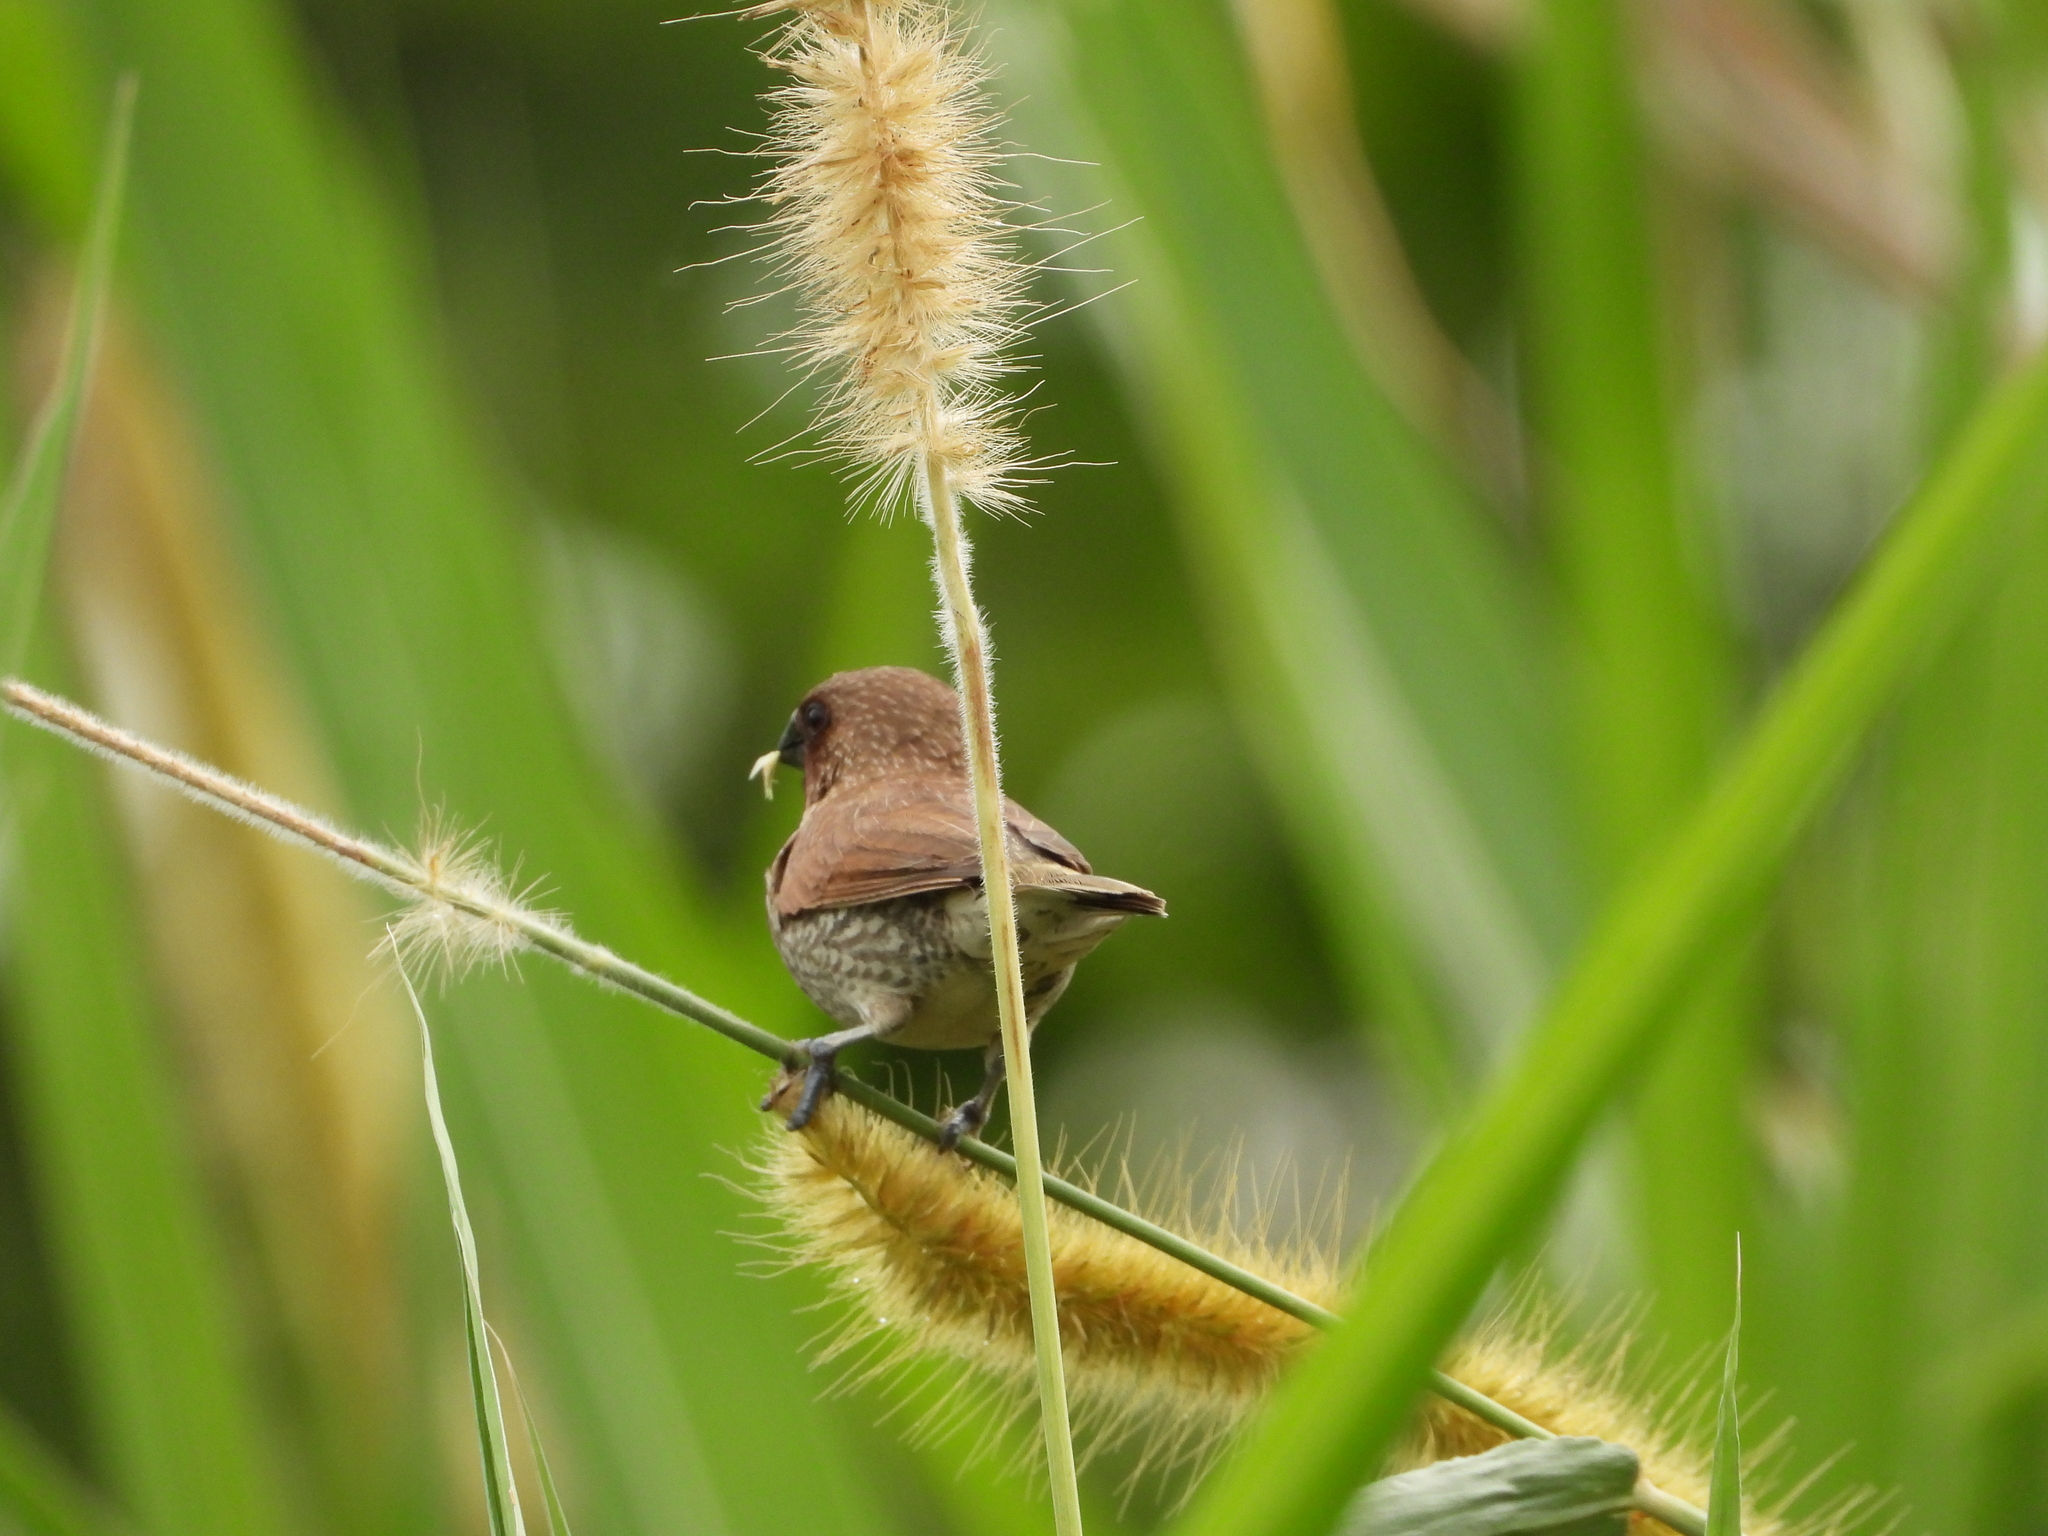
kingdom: Animalia
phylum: Chordata
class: Aves
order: Passeriformes
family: Estrildidae
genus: Lonchura
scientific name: Lonchura punctulata
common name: Scaly-breasted munia
